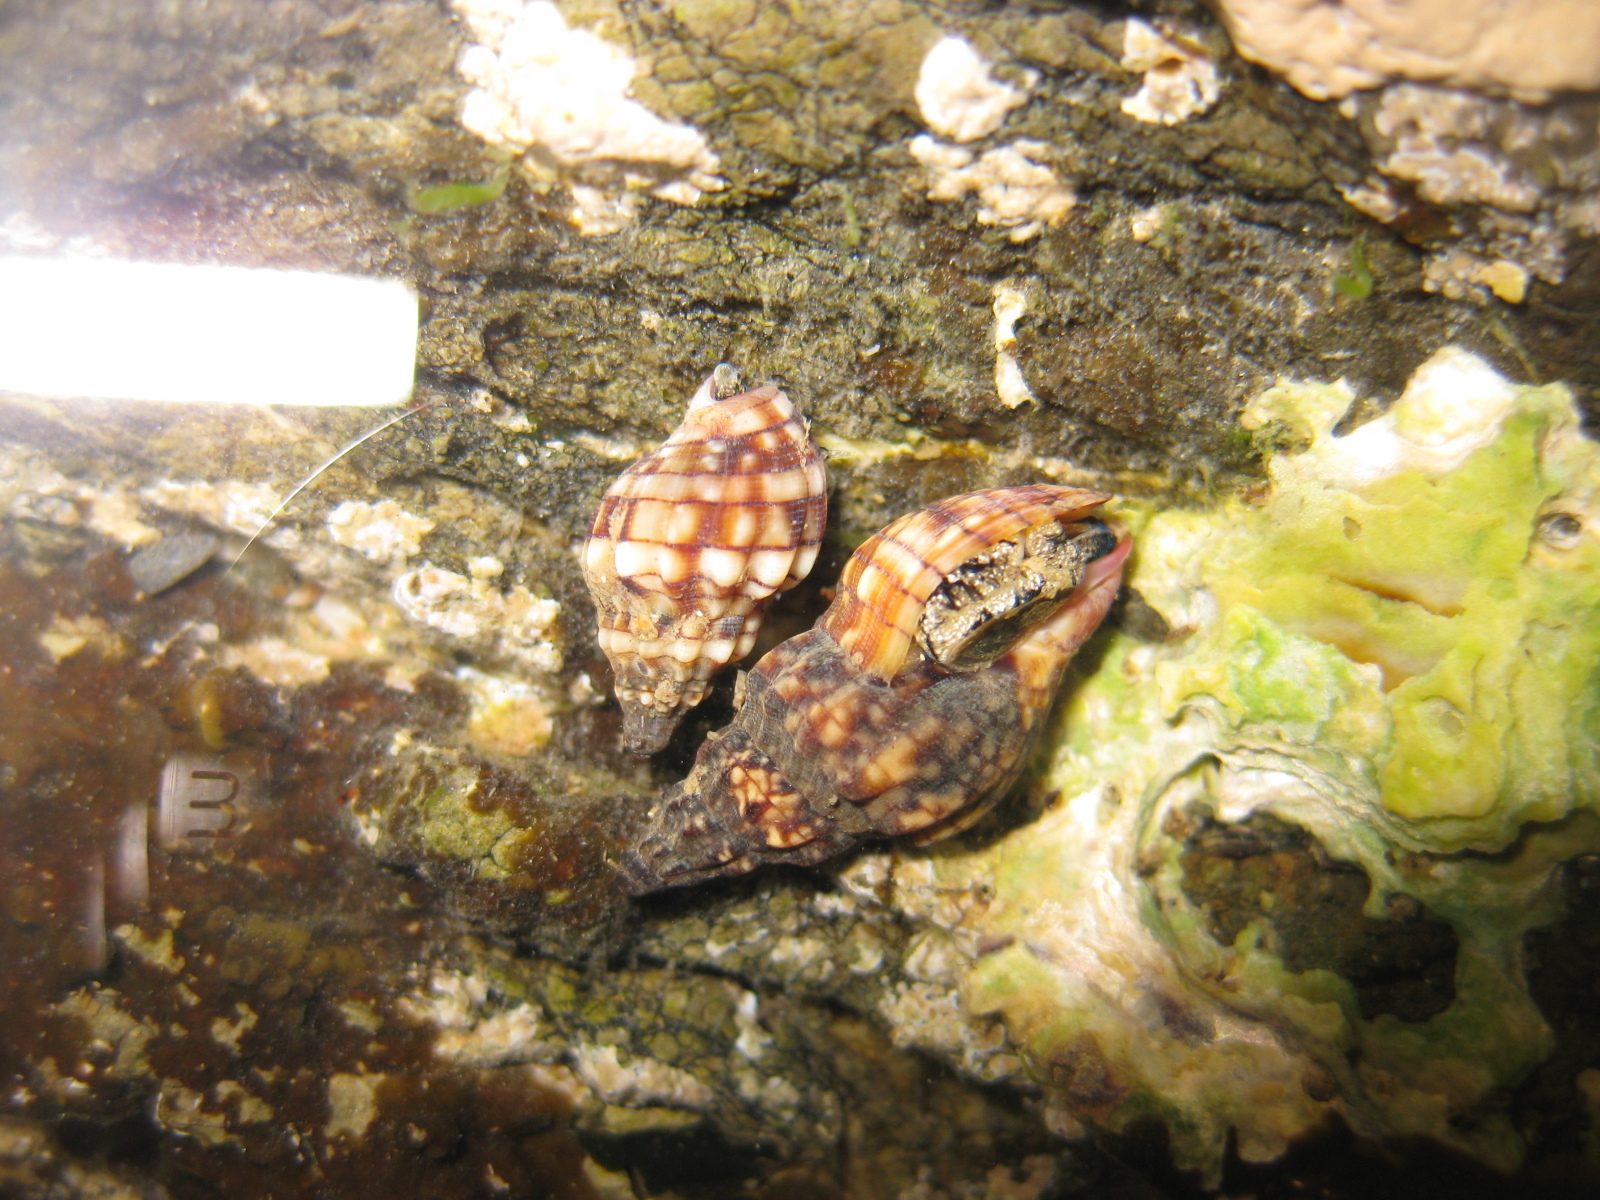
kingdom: Animalia
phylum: Mollusca
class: Gastropoda
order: Neogastropoda
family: Cominellidae
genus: Cominella
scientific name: Cominella quoyana
